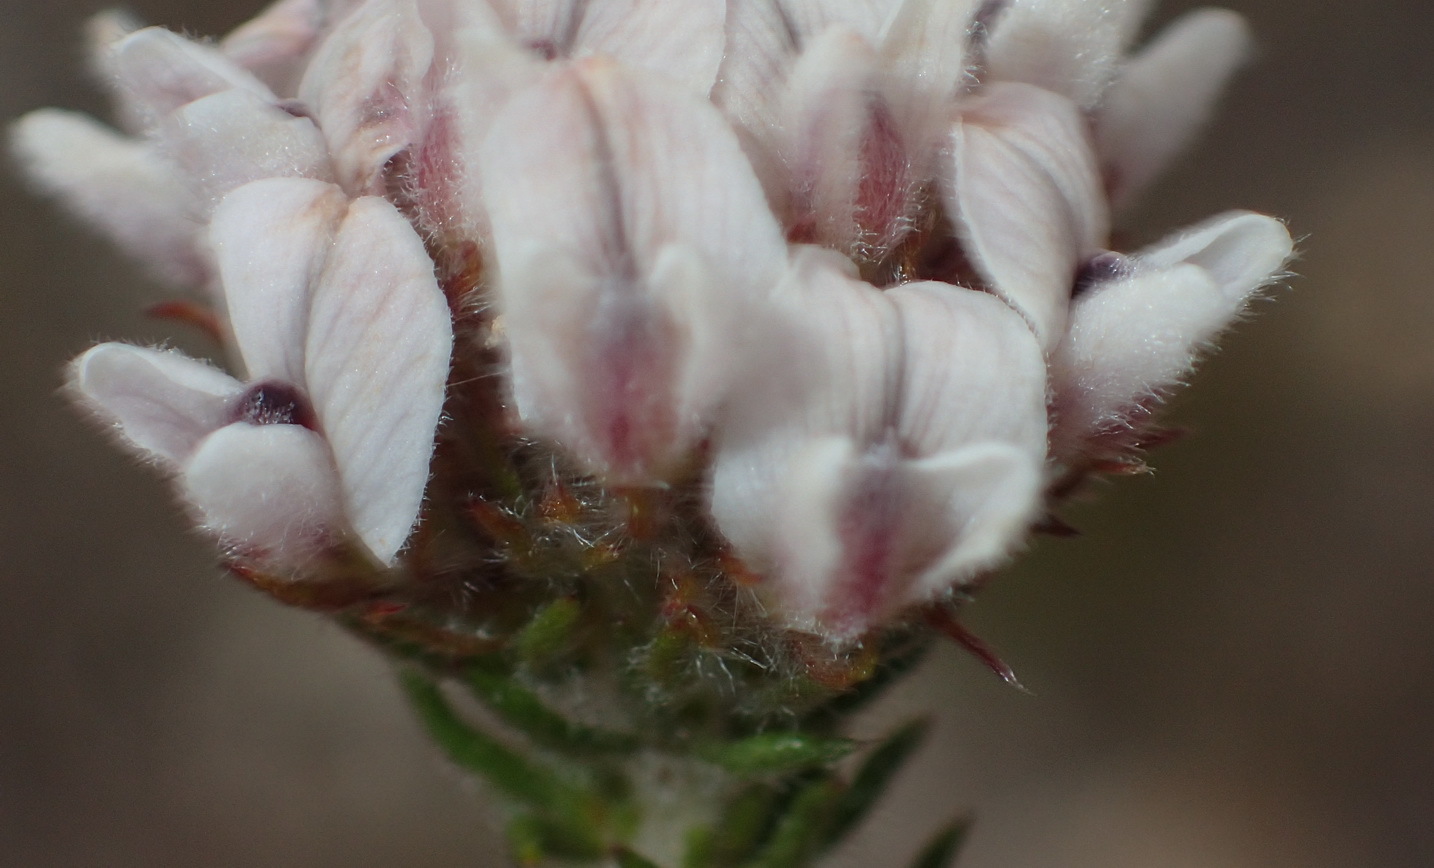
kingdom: Plantae
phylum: Tracheophyta
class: Magnoliopsida
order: Fabales
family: Fabaceae
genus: Aspalathus
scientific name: Aspalathus cerrhantha
